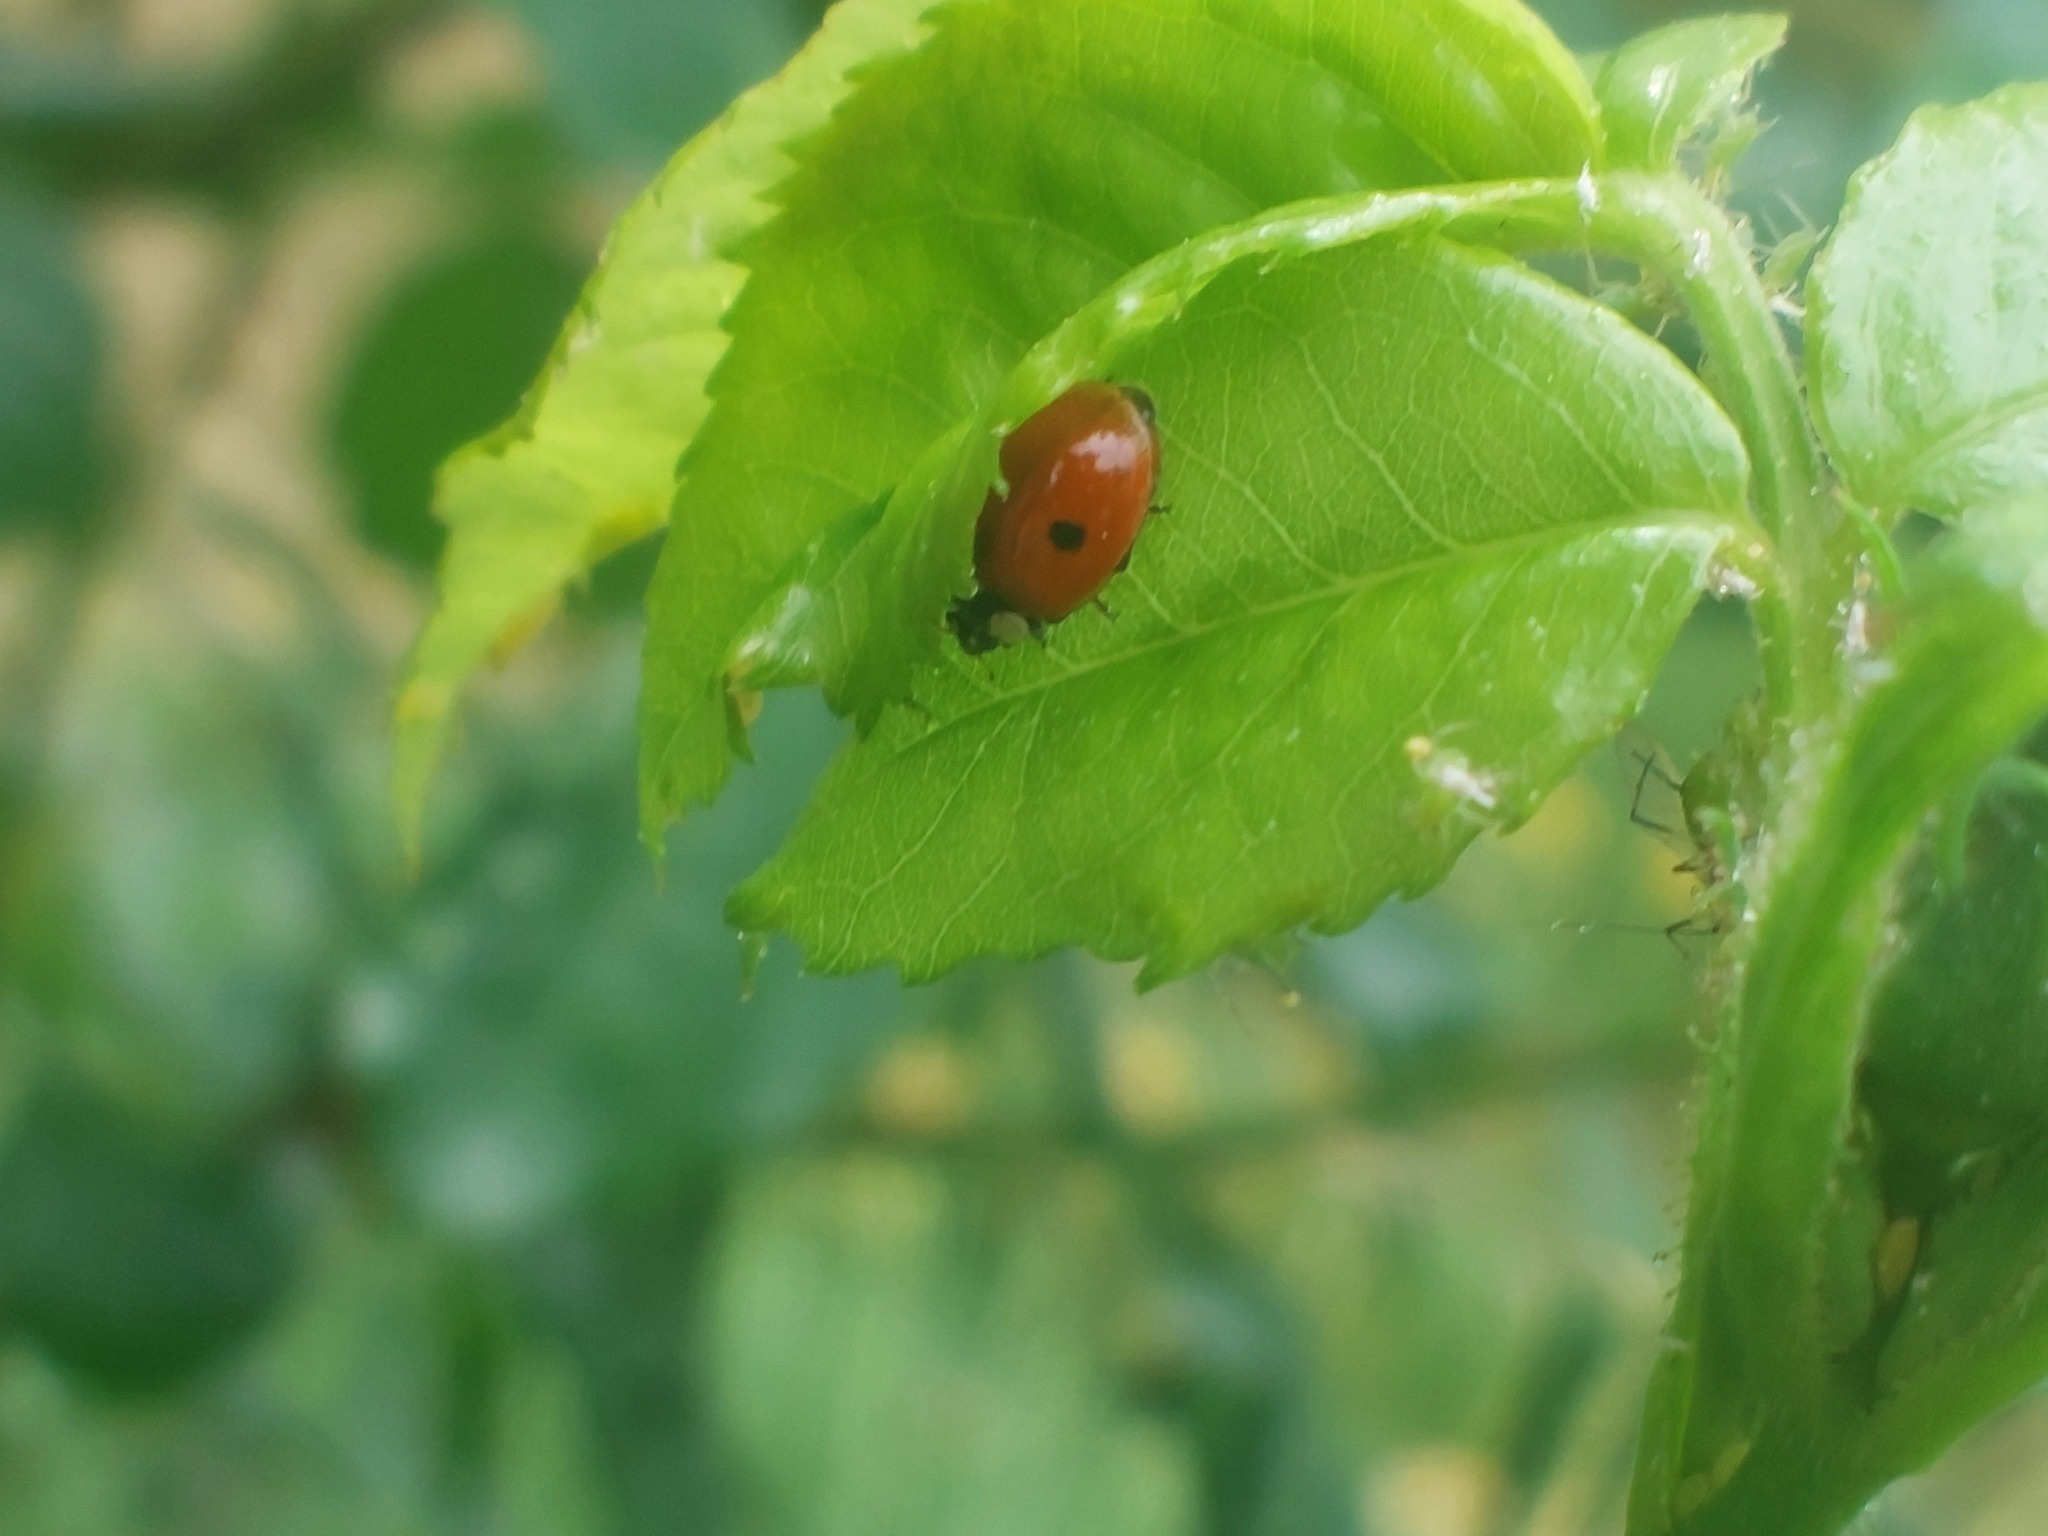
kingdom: Animalia
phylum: Arthropoda
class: Insecta
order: Coleoptera
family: Coccinellidae
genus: Adalia
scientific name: Adalia bipunctata
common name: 2-spot ladybird
